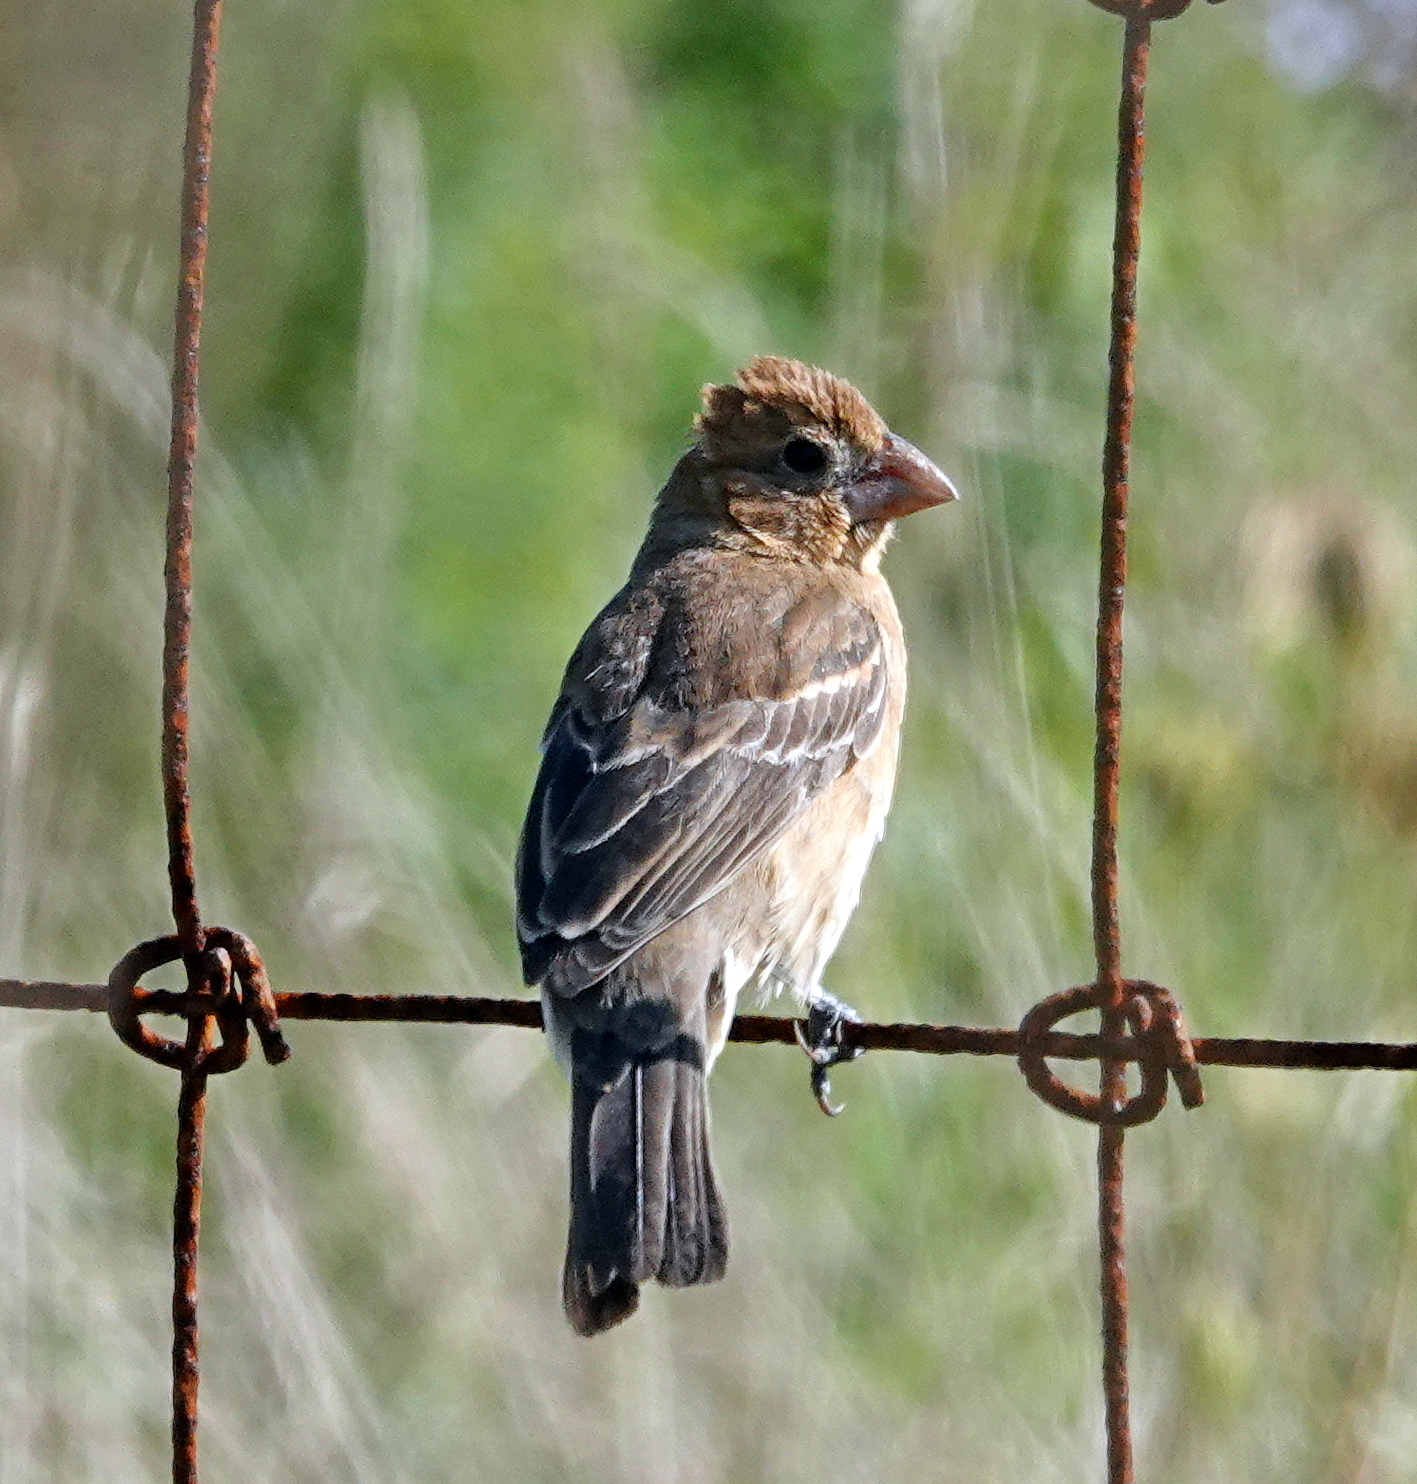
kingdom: Animalia
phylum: Chordata
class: Aves
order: Passeriformes
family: Cardinalidae
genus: Passerina
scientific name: Passerina caerulea
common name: Blue grosbeak
